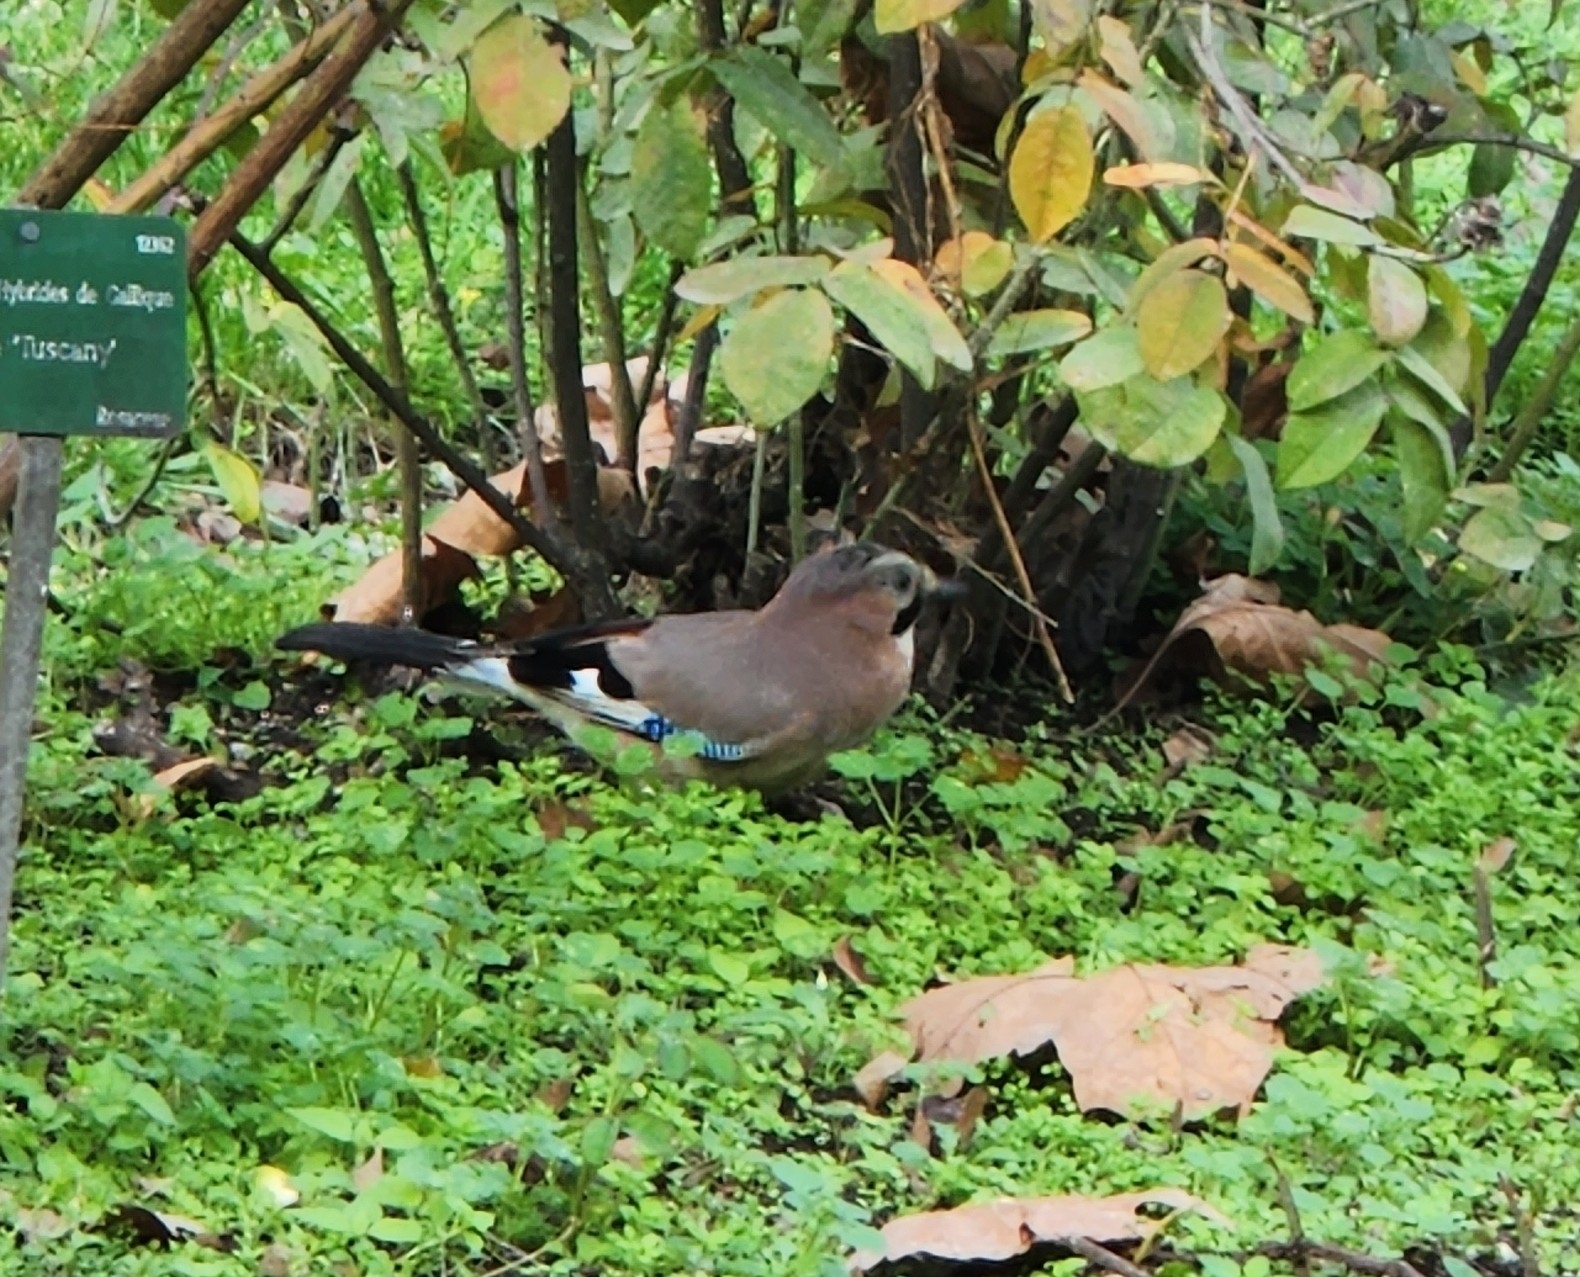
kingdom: Animalia
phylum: Chordata
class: Aves
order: Passeriformes
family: Corvidae
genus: Garrulus
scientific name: Garrulus glandarius
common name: Eurasian jay
